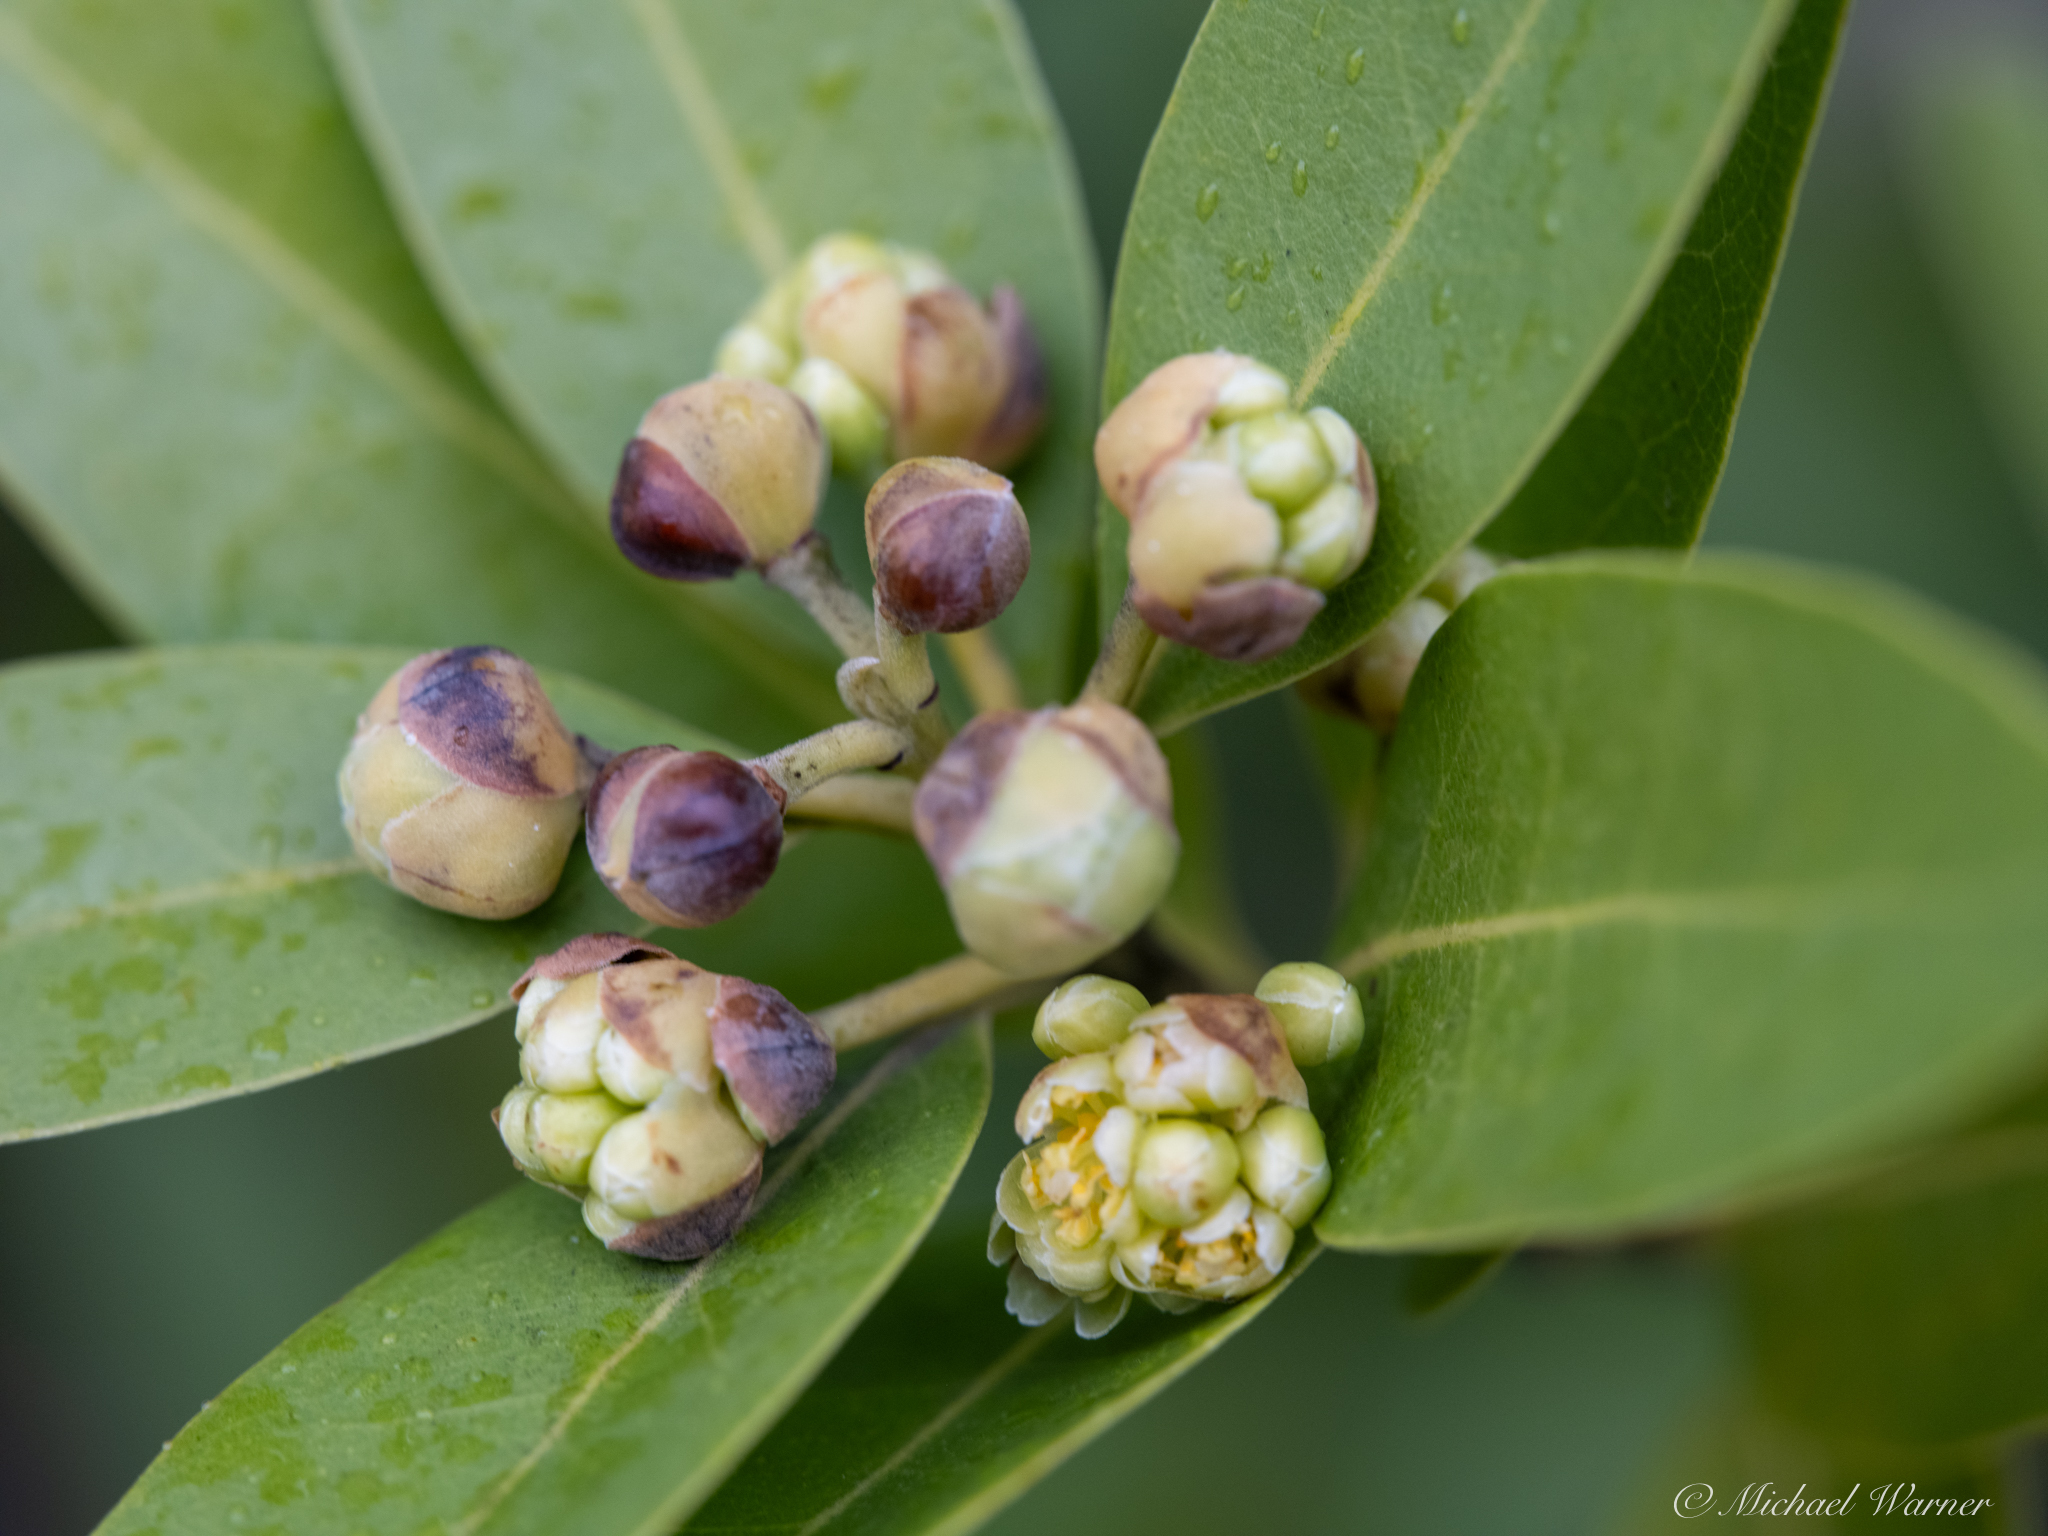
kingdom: Plantae
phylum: Tracheophyta
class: Magnoliopsida
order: Laurales
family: Lauraceae
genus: Umbellularia
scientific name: Umbellularia californica
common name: California bay
